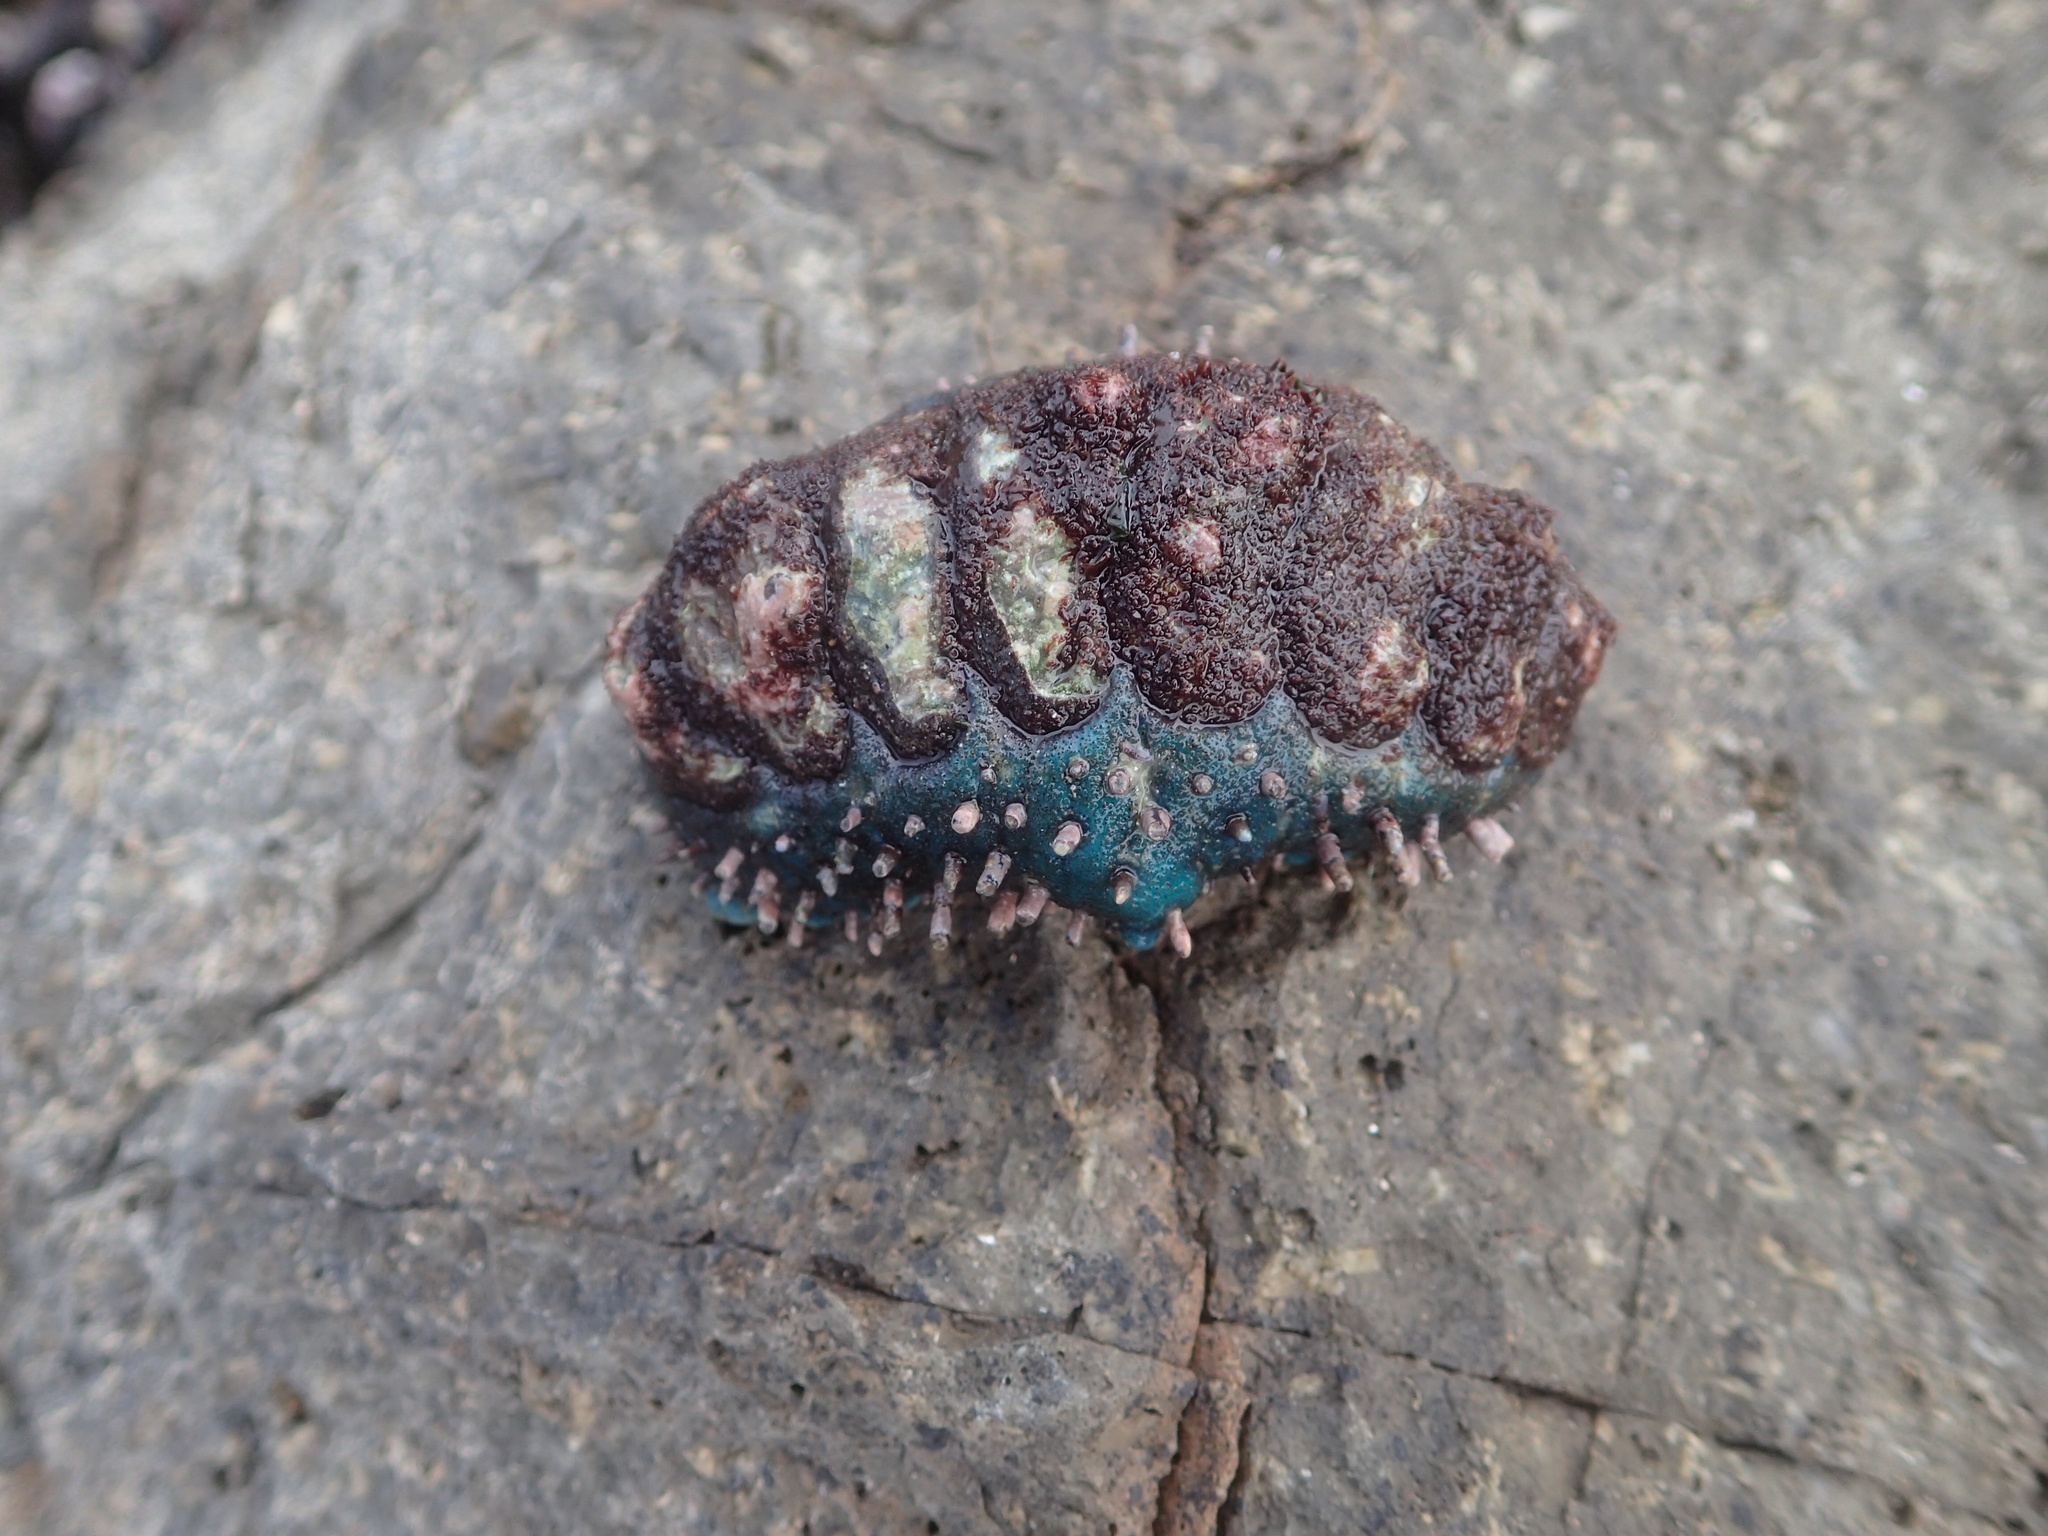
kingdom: Animalia
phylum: Mollusca
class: Polyplacophora
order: Chitonida
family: Chitonidae
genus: Enoplochiton
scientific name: Enoplochiton echinatus
